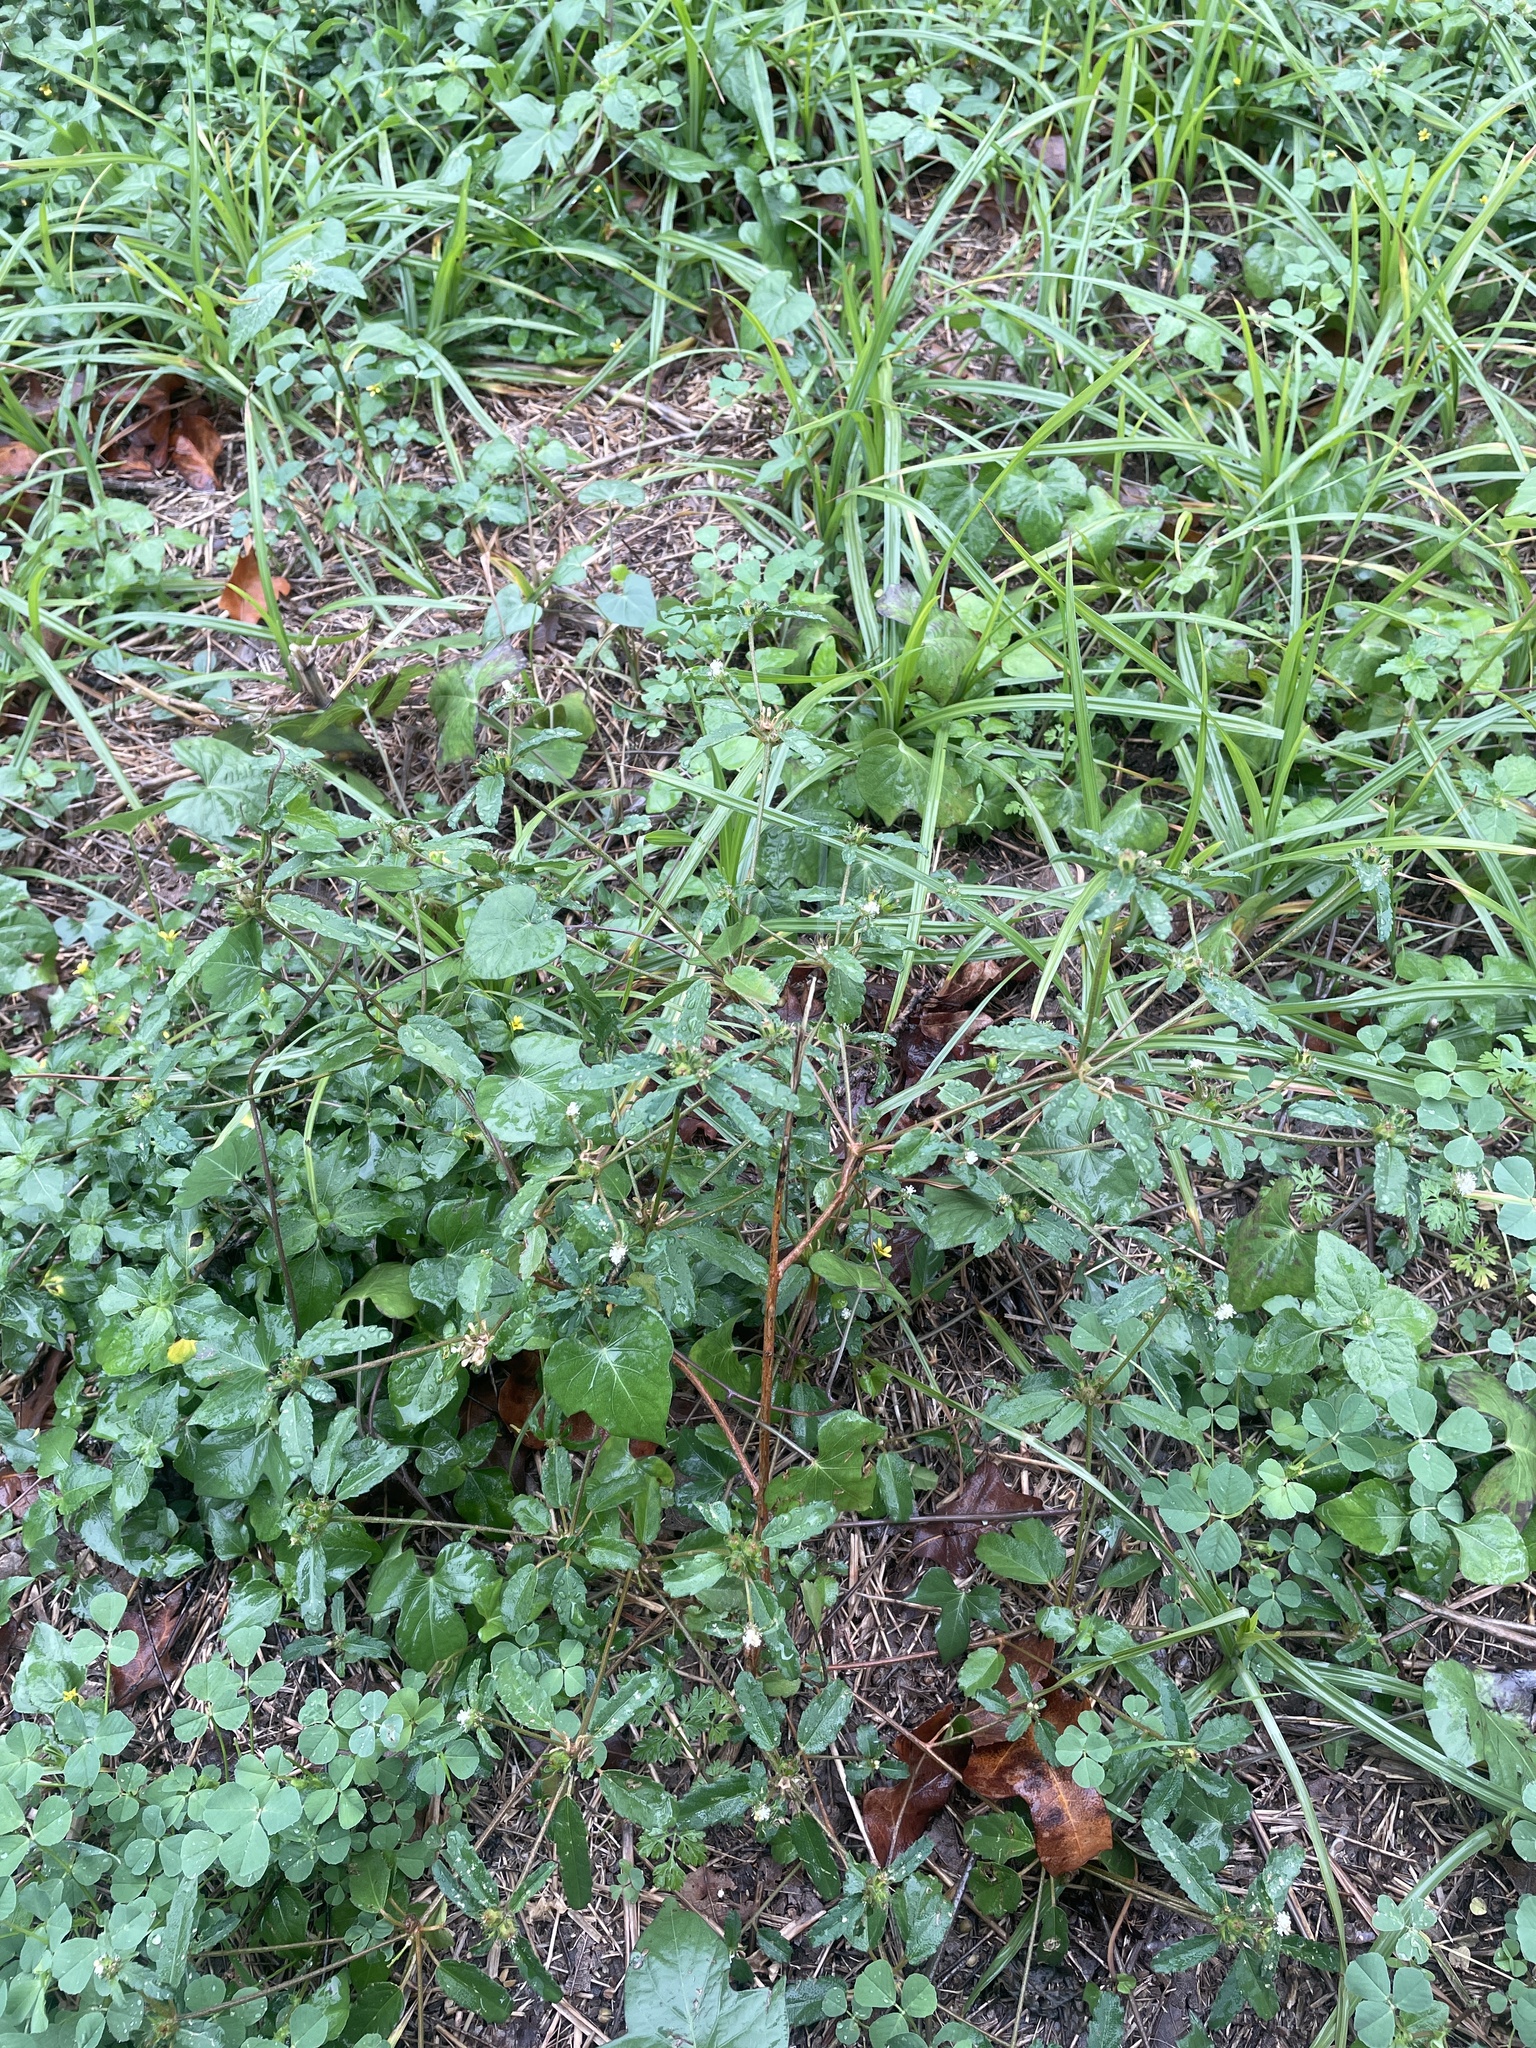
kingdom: Plantae
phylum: Tracheophyta
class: Magnoliopsida
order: Malpighiales
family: Euphorbiaceae
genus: Croton
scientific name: Croton glandulosus
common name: Tropic croton
